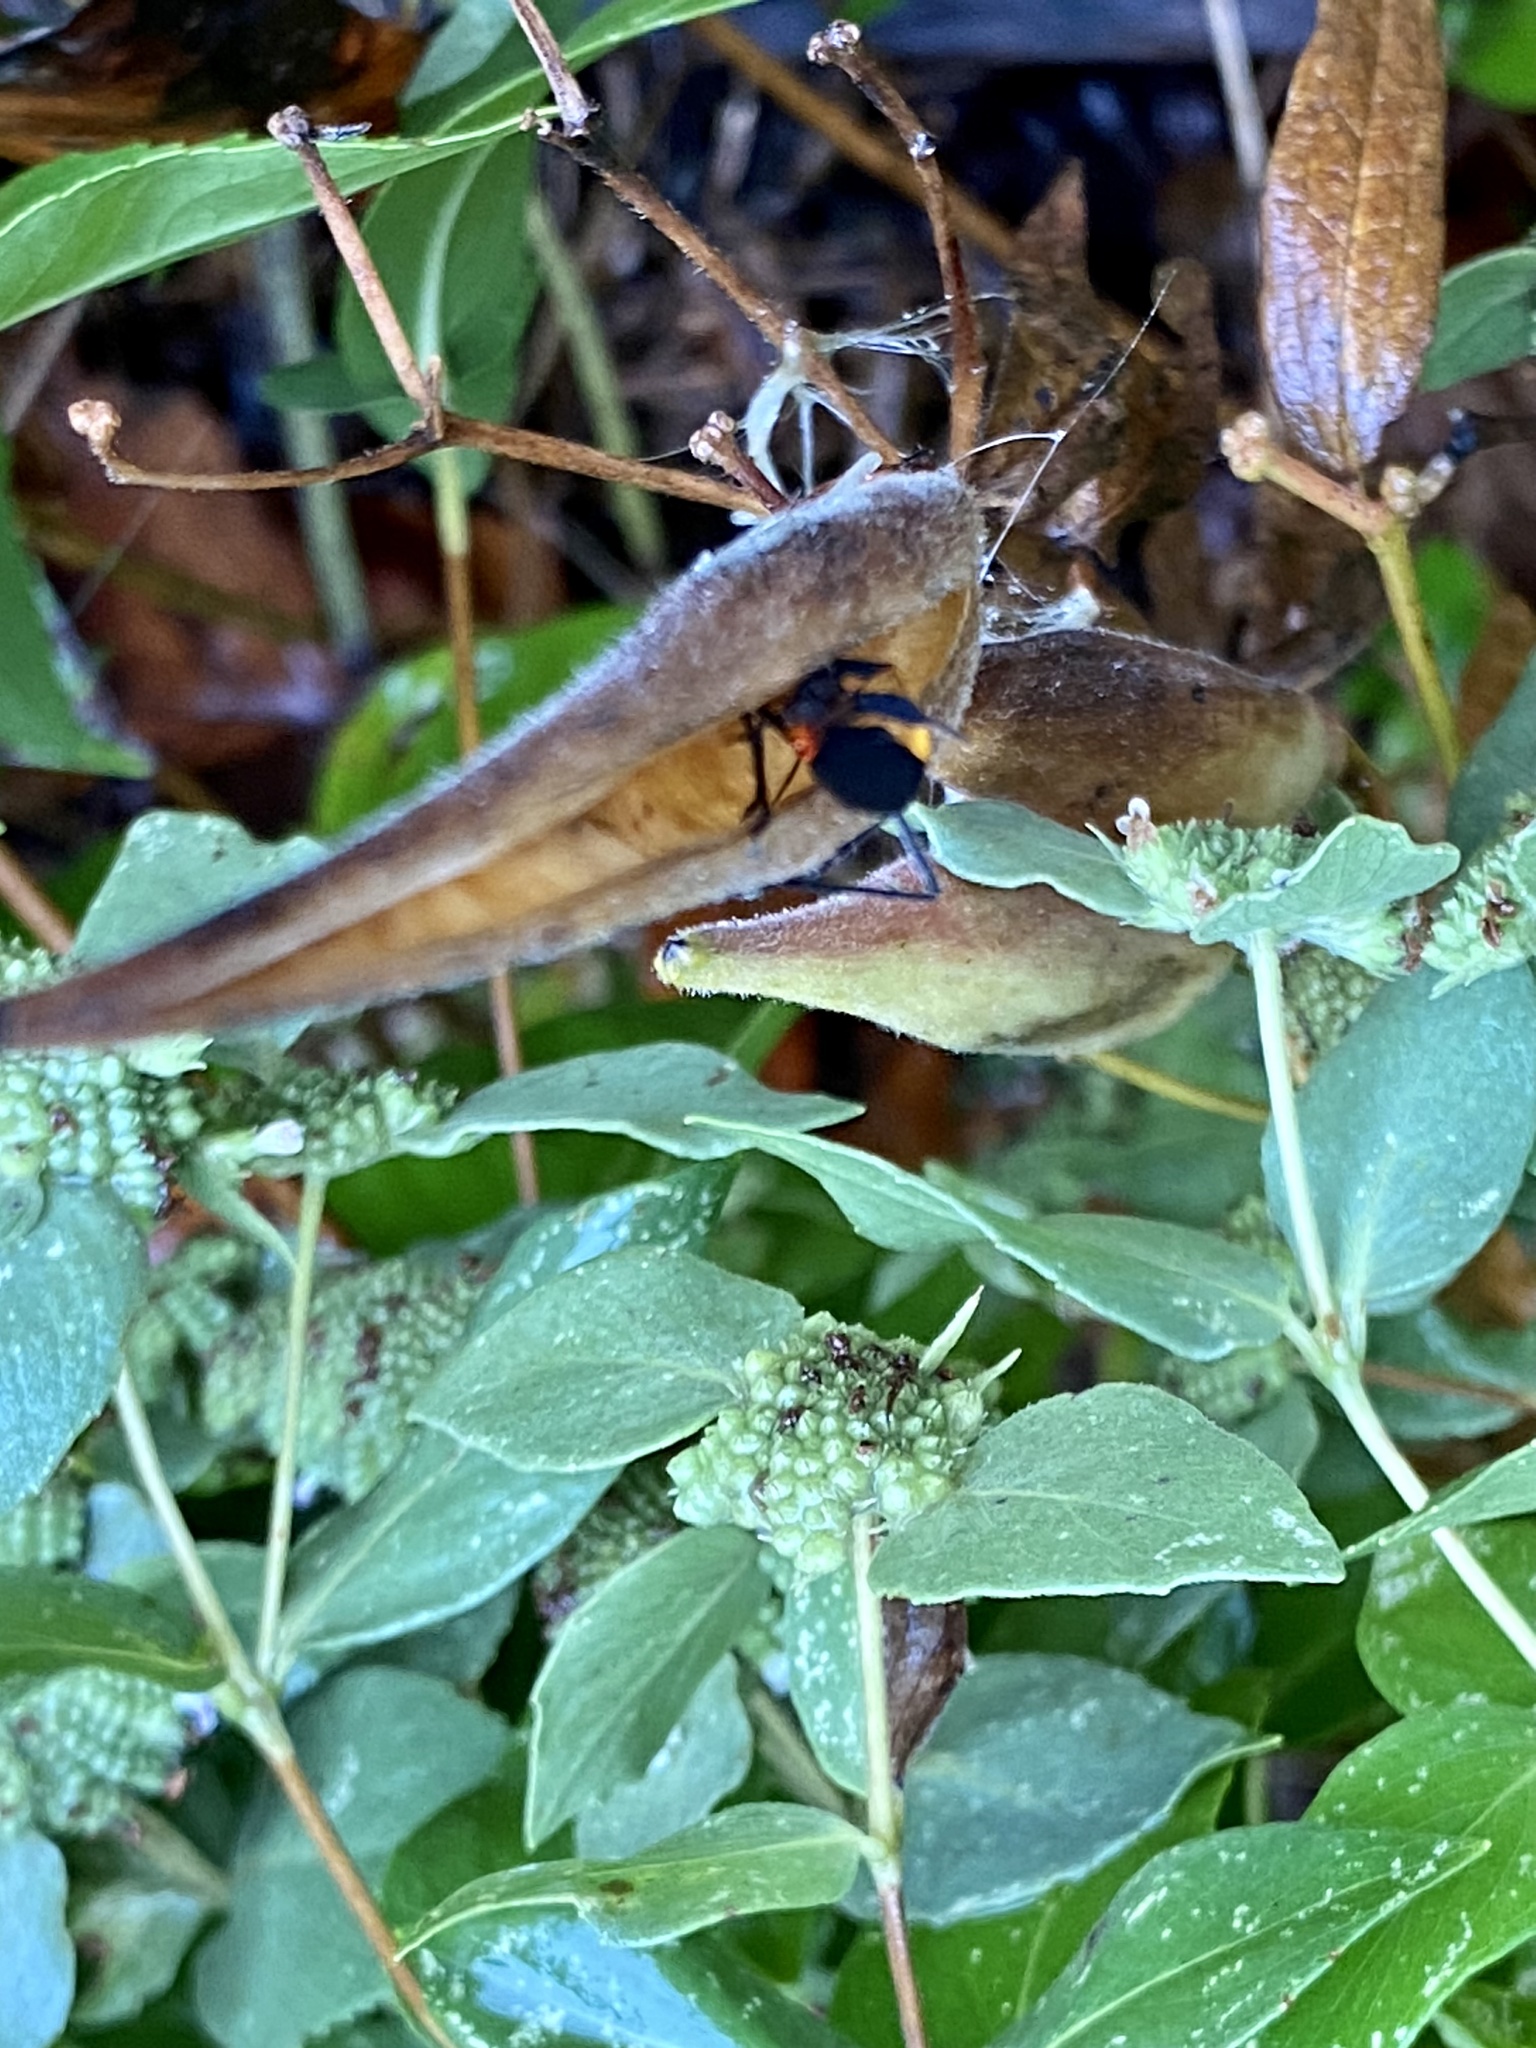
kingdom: Animalia
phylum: Arthropoda
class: Insecta
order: Hemiptera
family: Lygaeidae
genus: Oncopeltus
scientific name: Oncopeltus fasciatus
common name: Large milkweed bug
